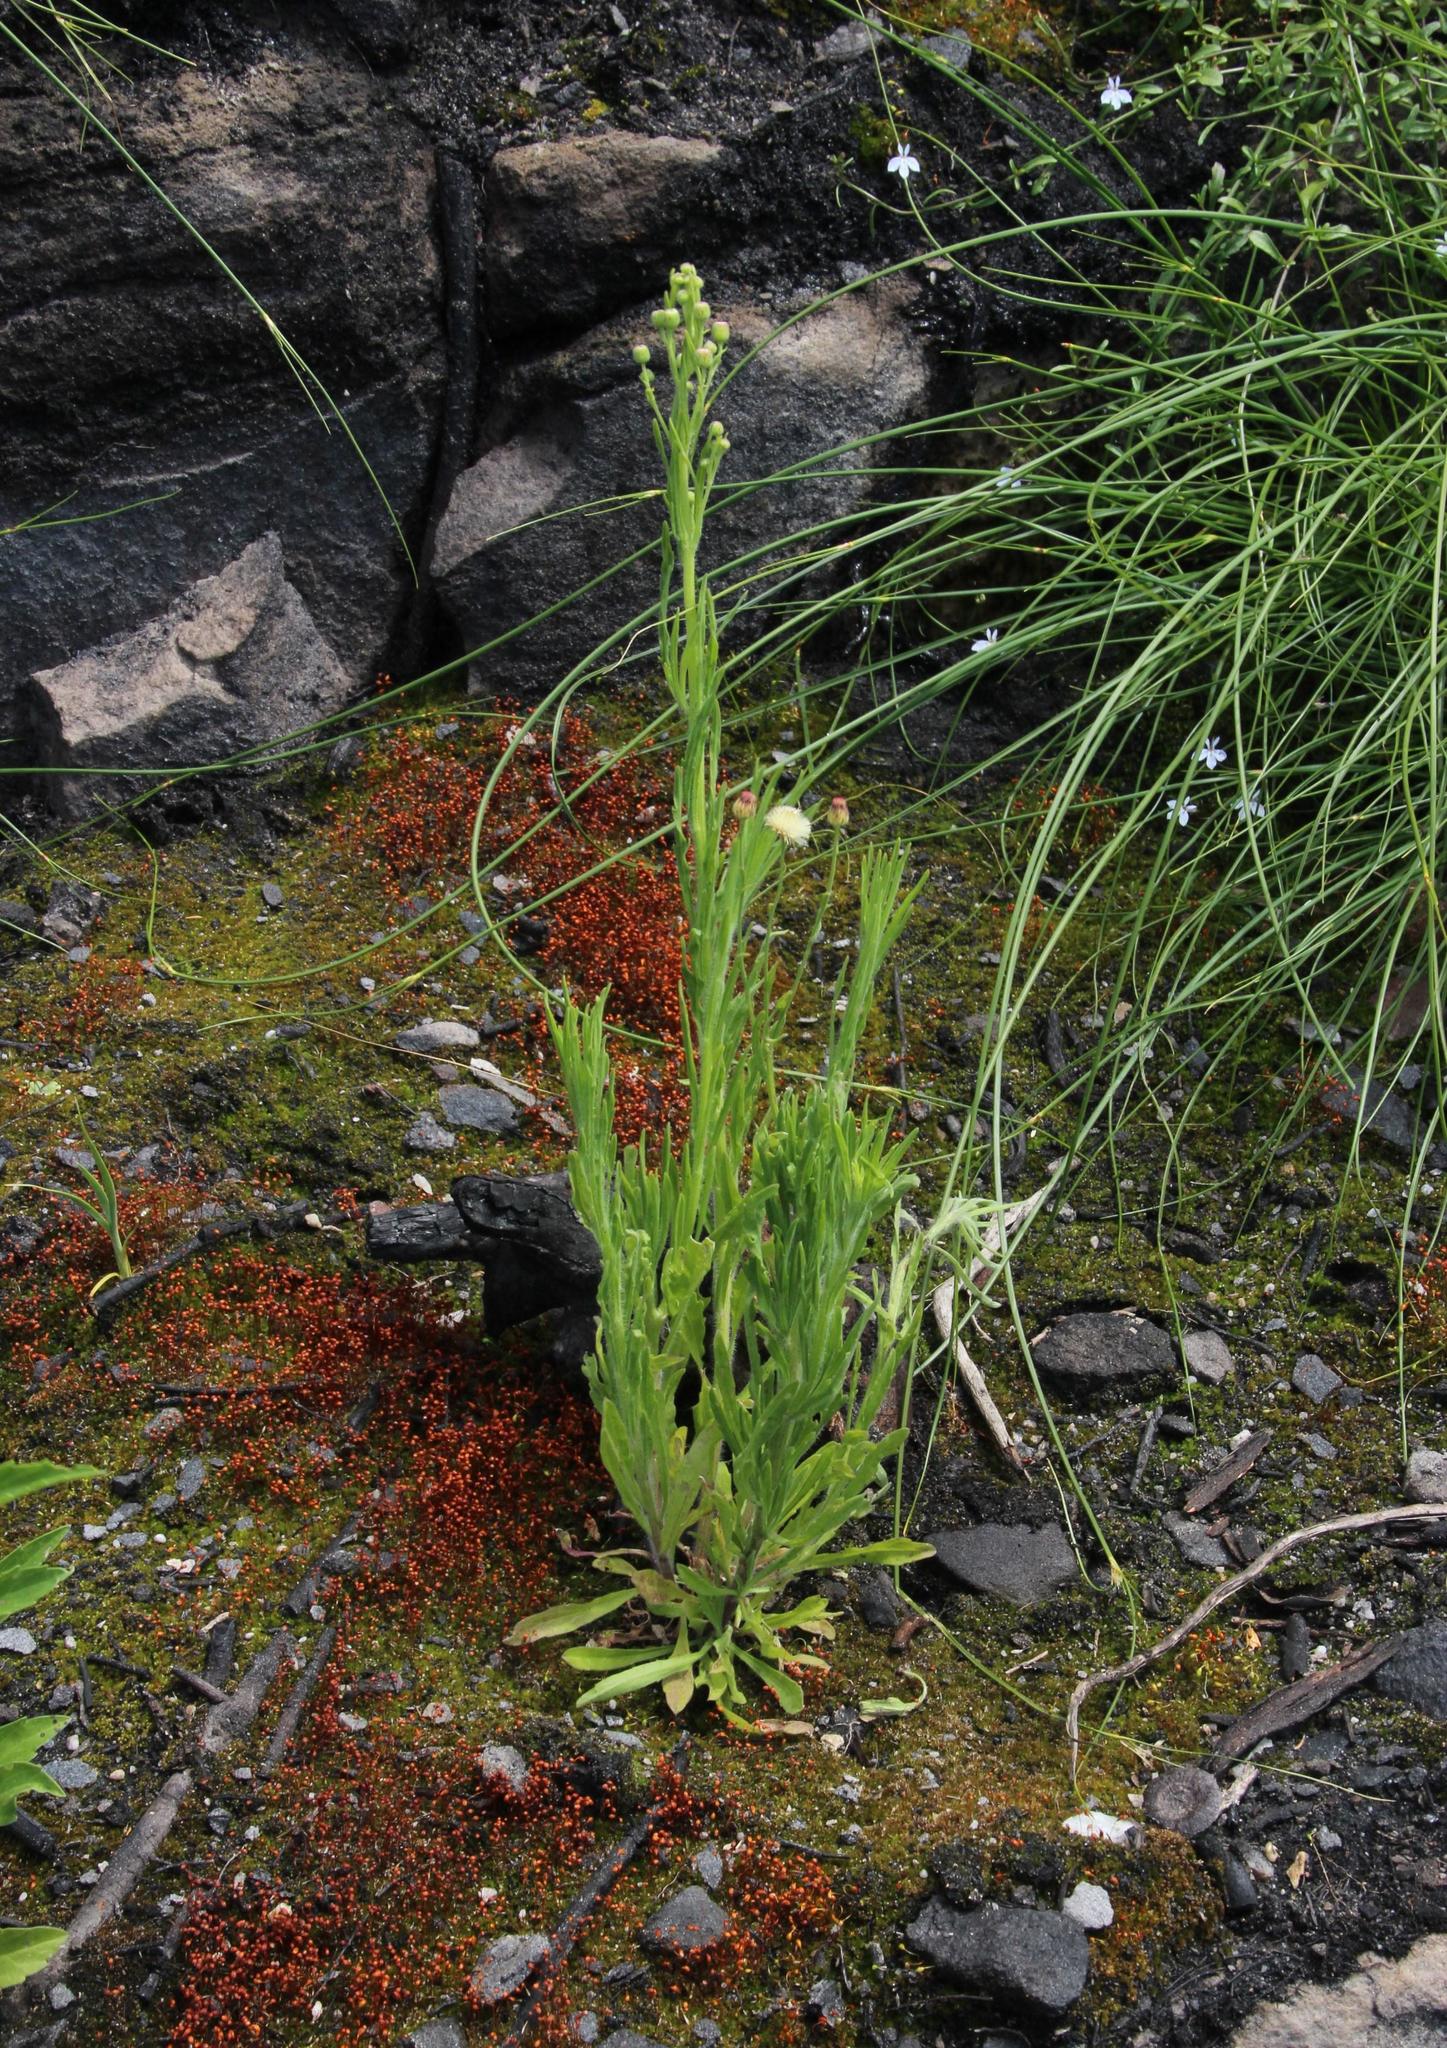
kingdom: Plantae
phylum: Tracheophyta
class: Magnoliopsida
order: Asterales
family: Asteraceae
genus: Erigeron
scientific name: Erigeron bonariensis
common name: Argentine fleabane
